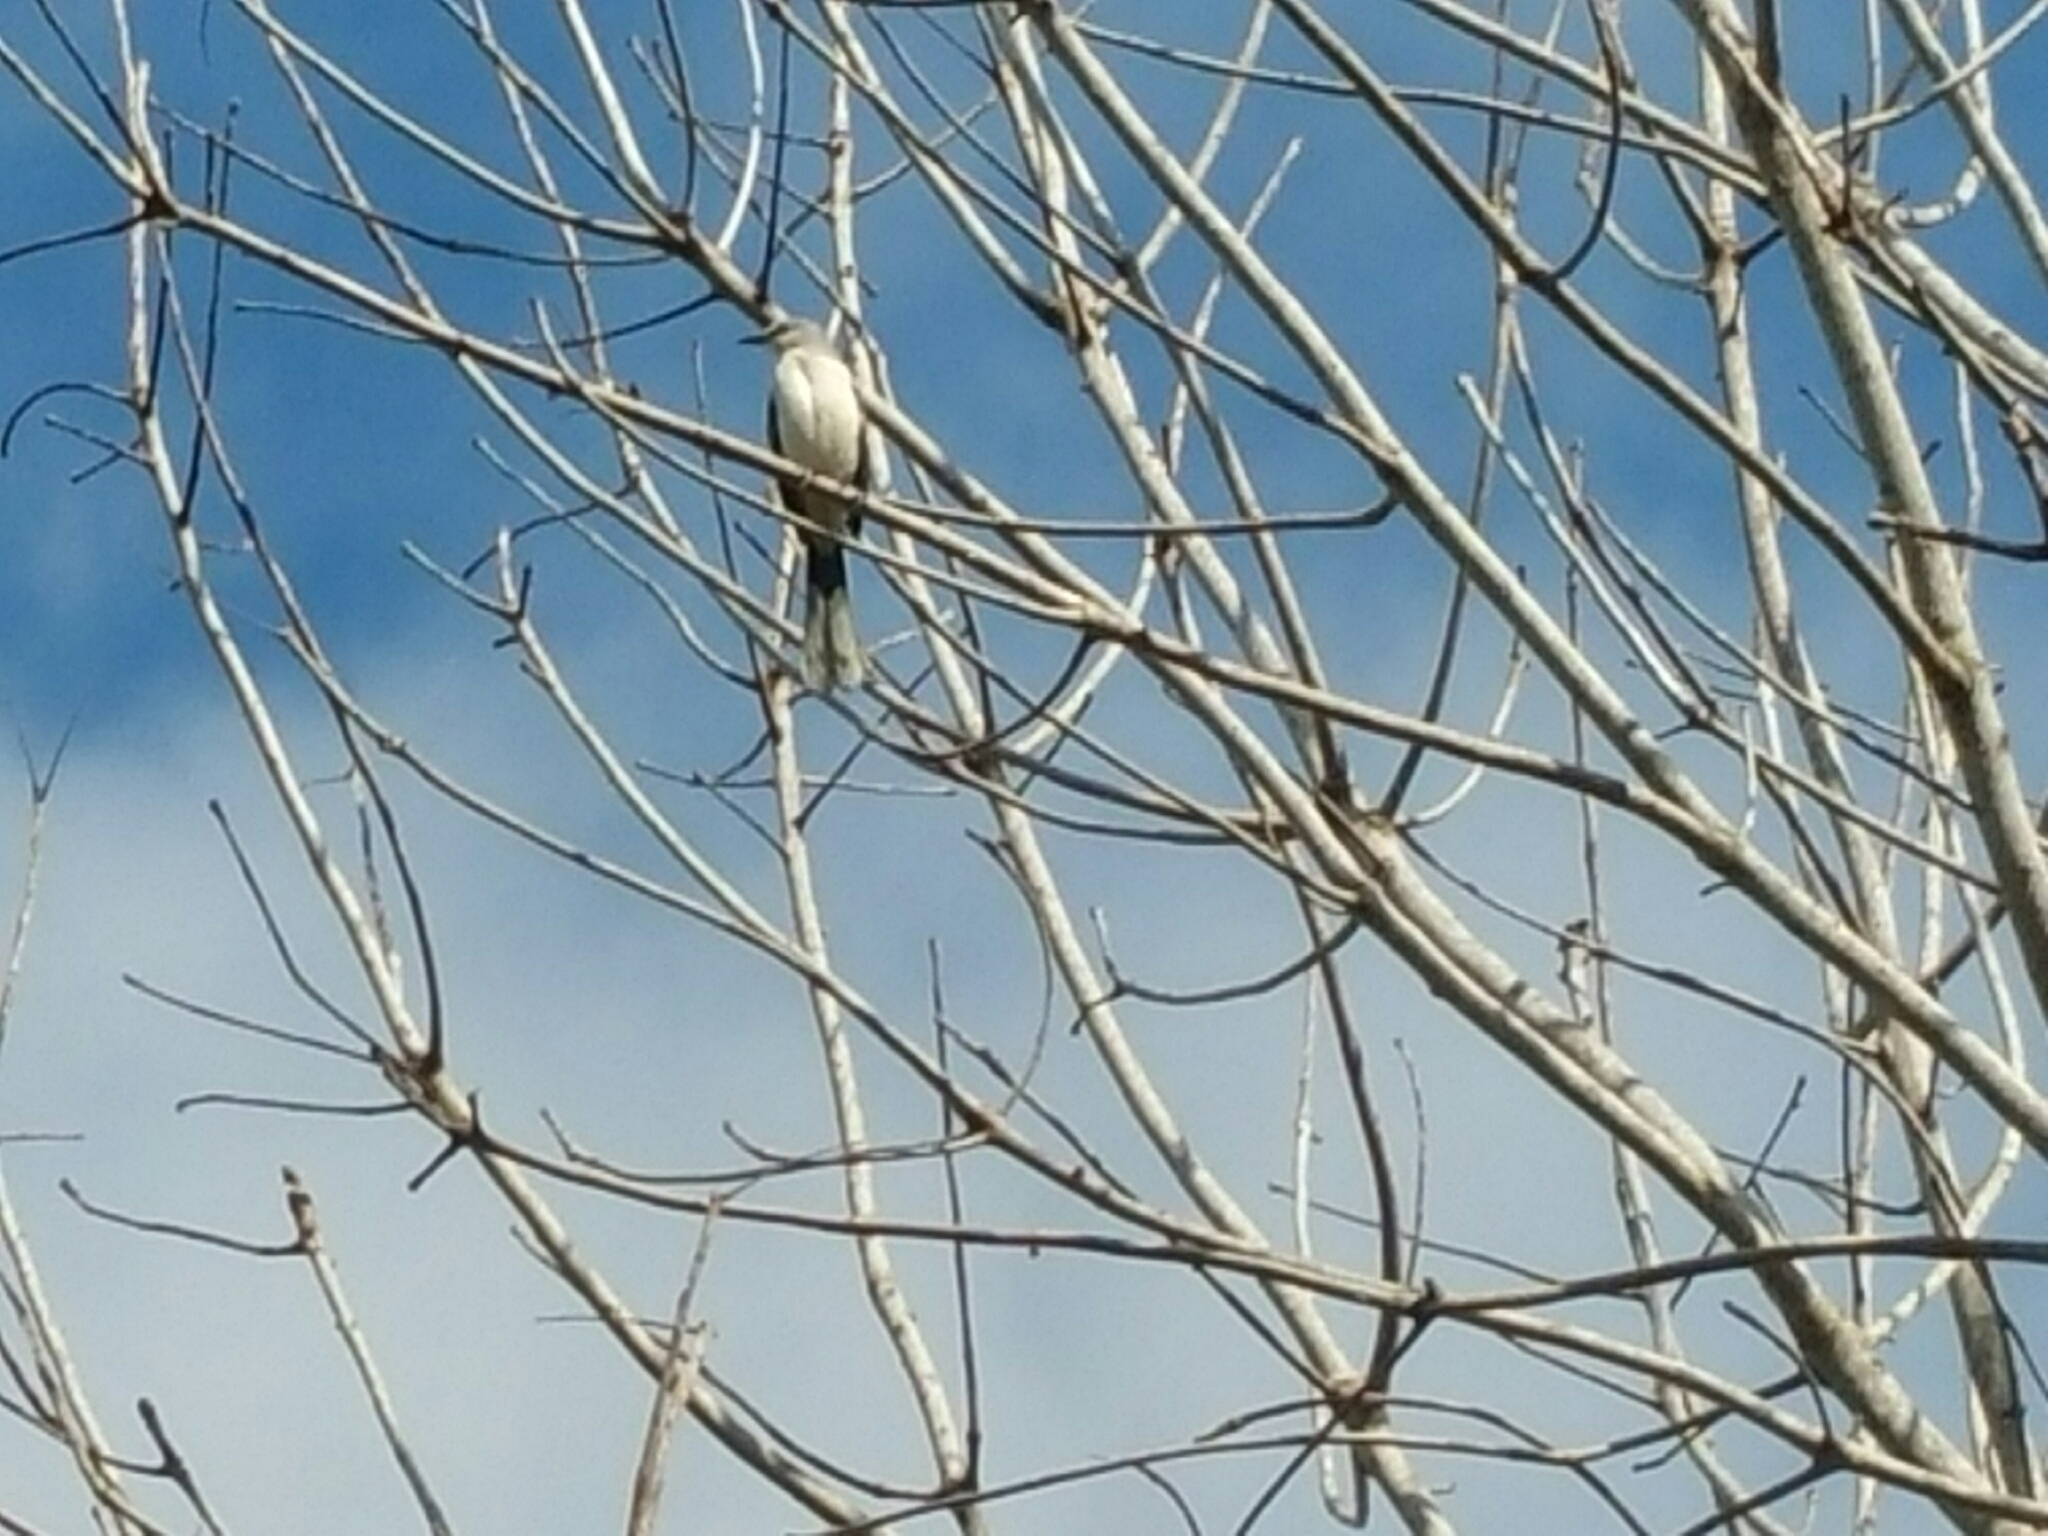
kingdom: Animalia
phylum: Chordata
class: Aves
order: Passeriformes
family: Mimidae
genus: Mimus
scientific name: Mimus gilvus
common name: Tropical mockingbird
